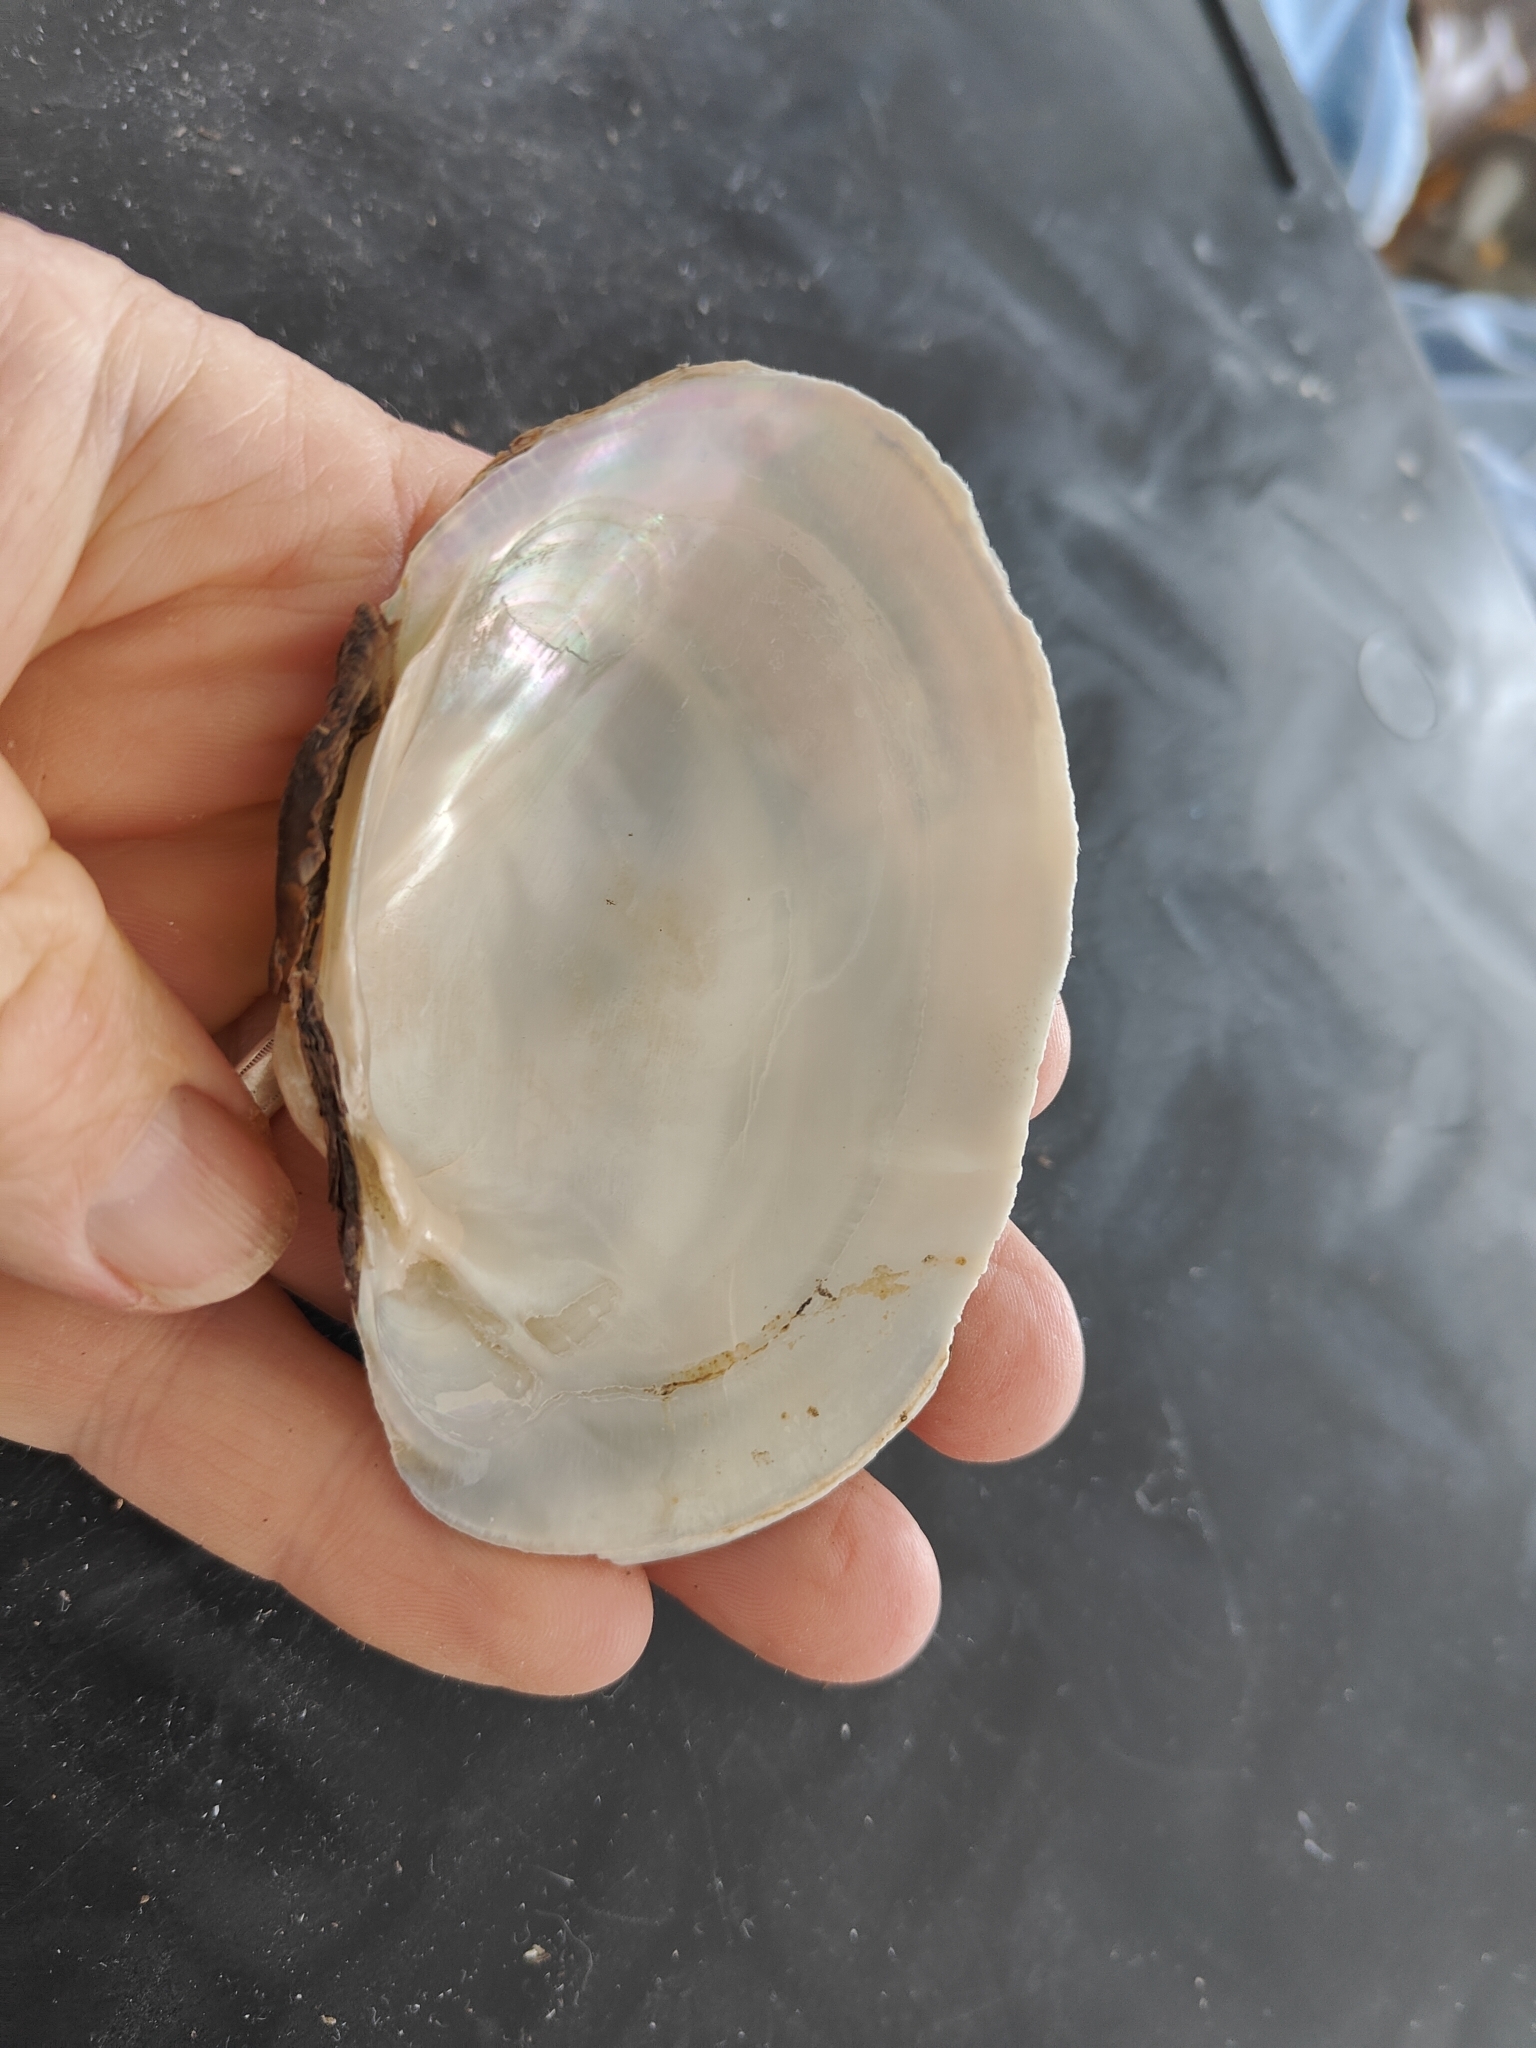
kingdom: Animalia
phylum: Mollusca
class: Bivalvia
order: Unionida
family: Unionidae
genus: Lampsilis
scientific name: Lampsilis cardium
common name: Plain pocketbook
